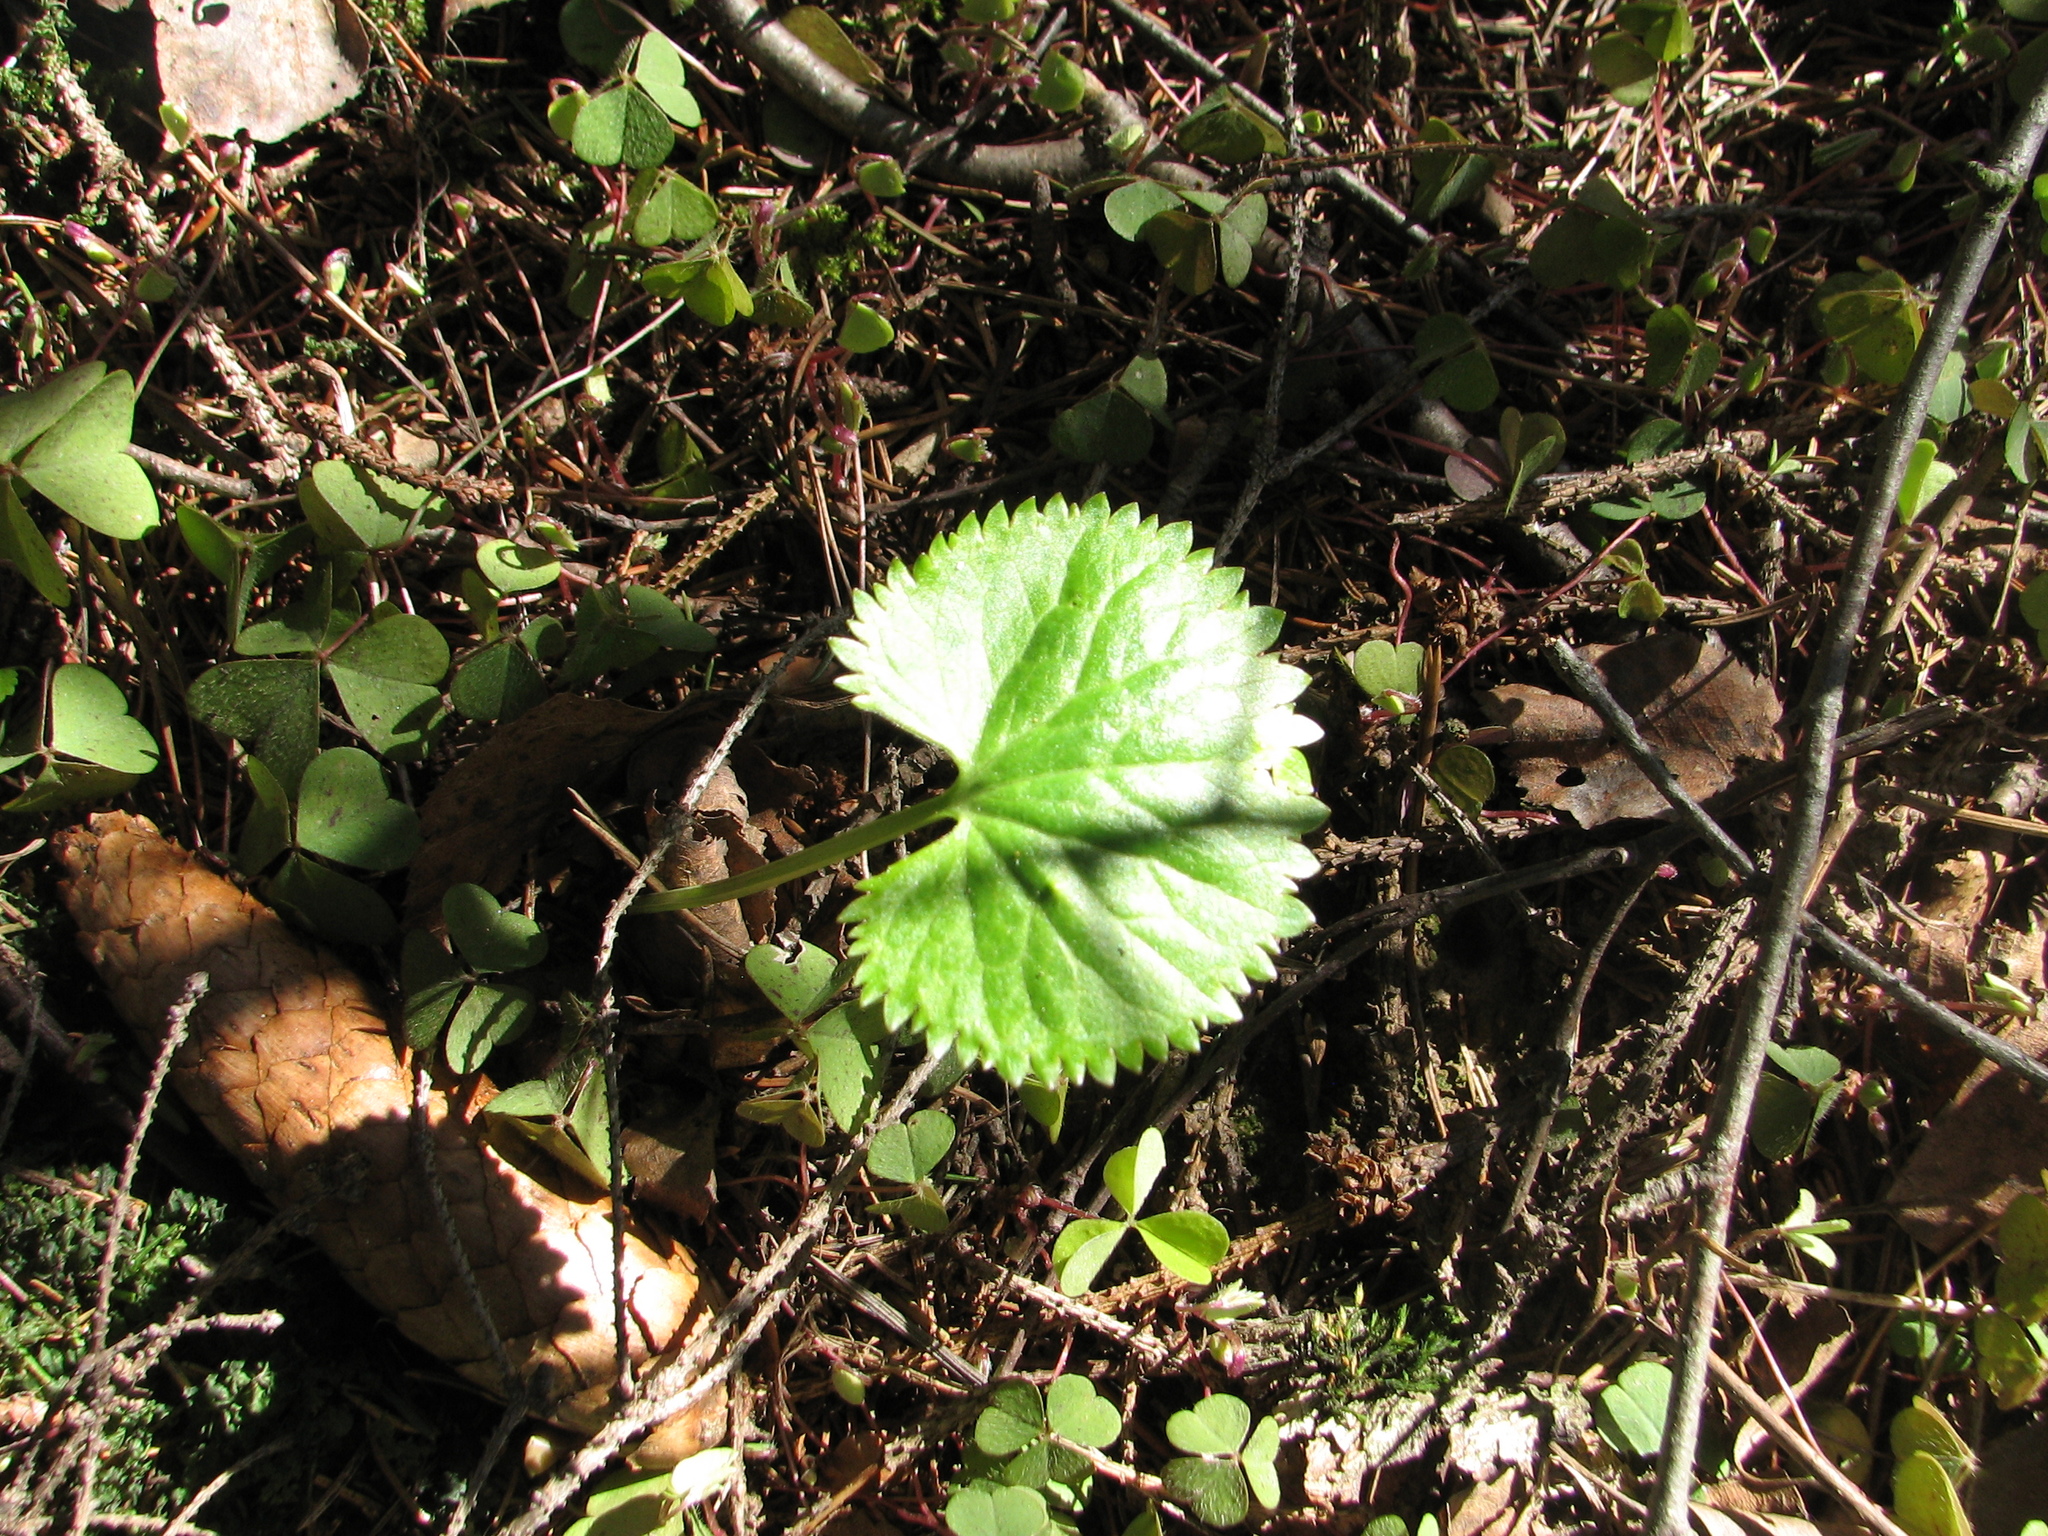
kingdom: Plantae
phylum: Tracheophyta
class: Magnoliopsida
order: Ranunculales
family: Ranunculaceae
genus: Ranunculus
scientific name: Ranunculus cassubicus
